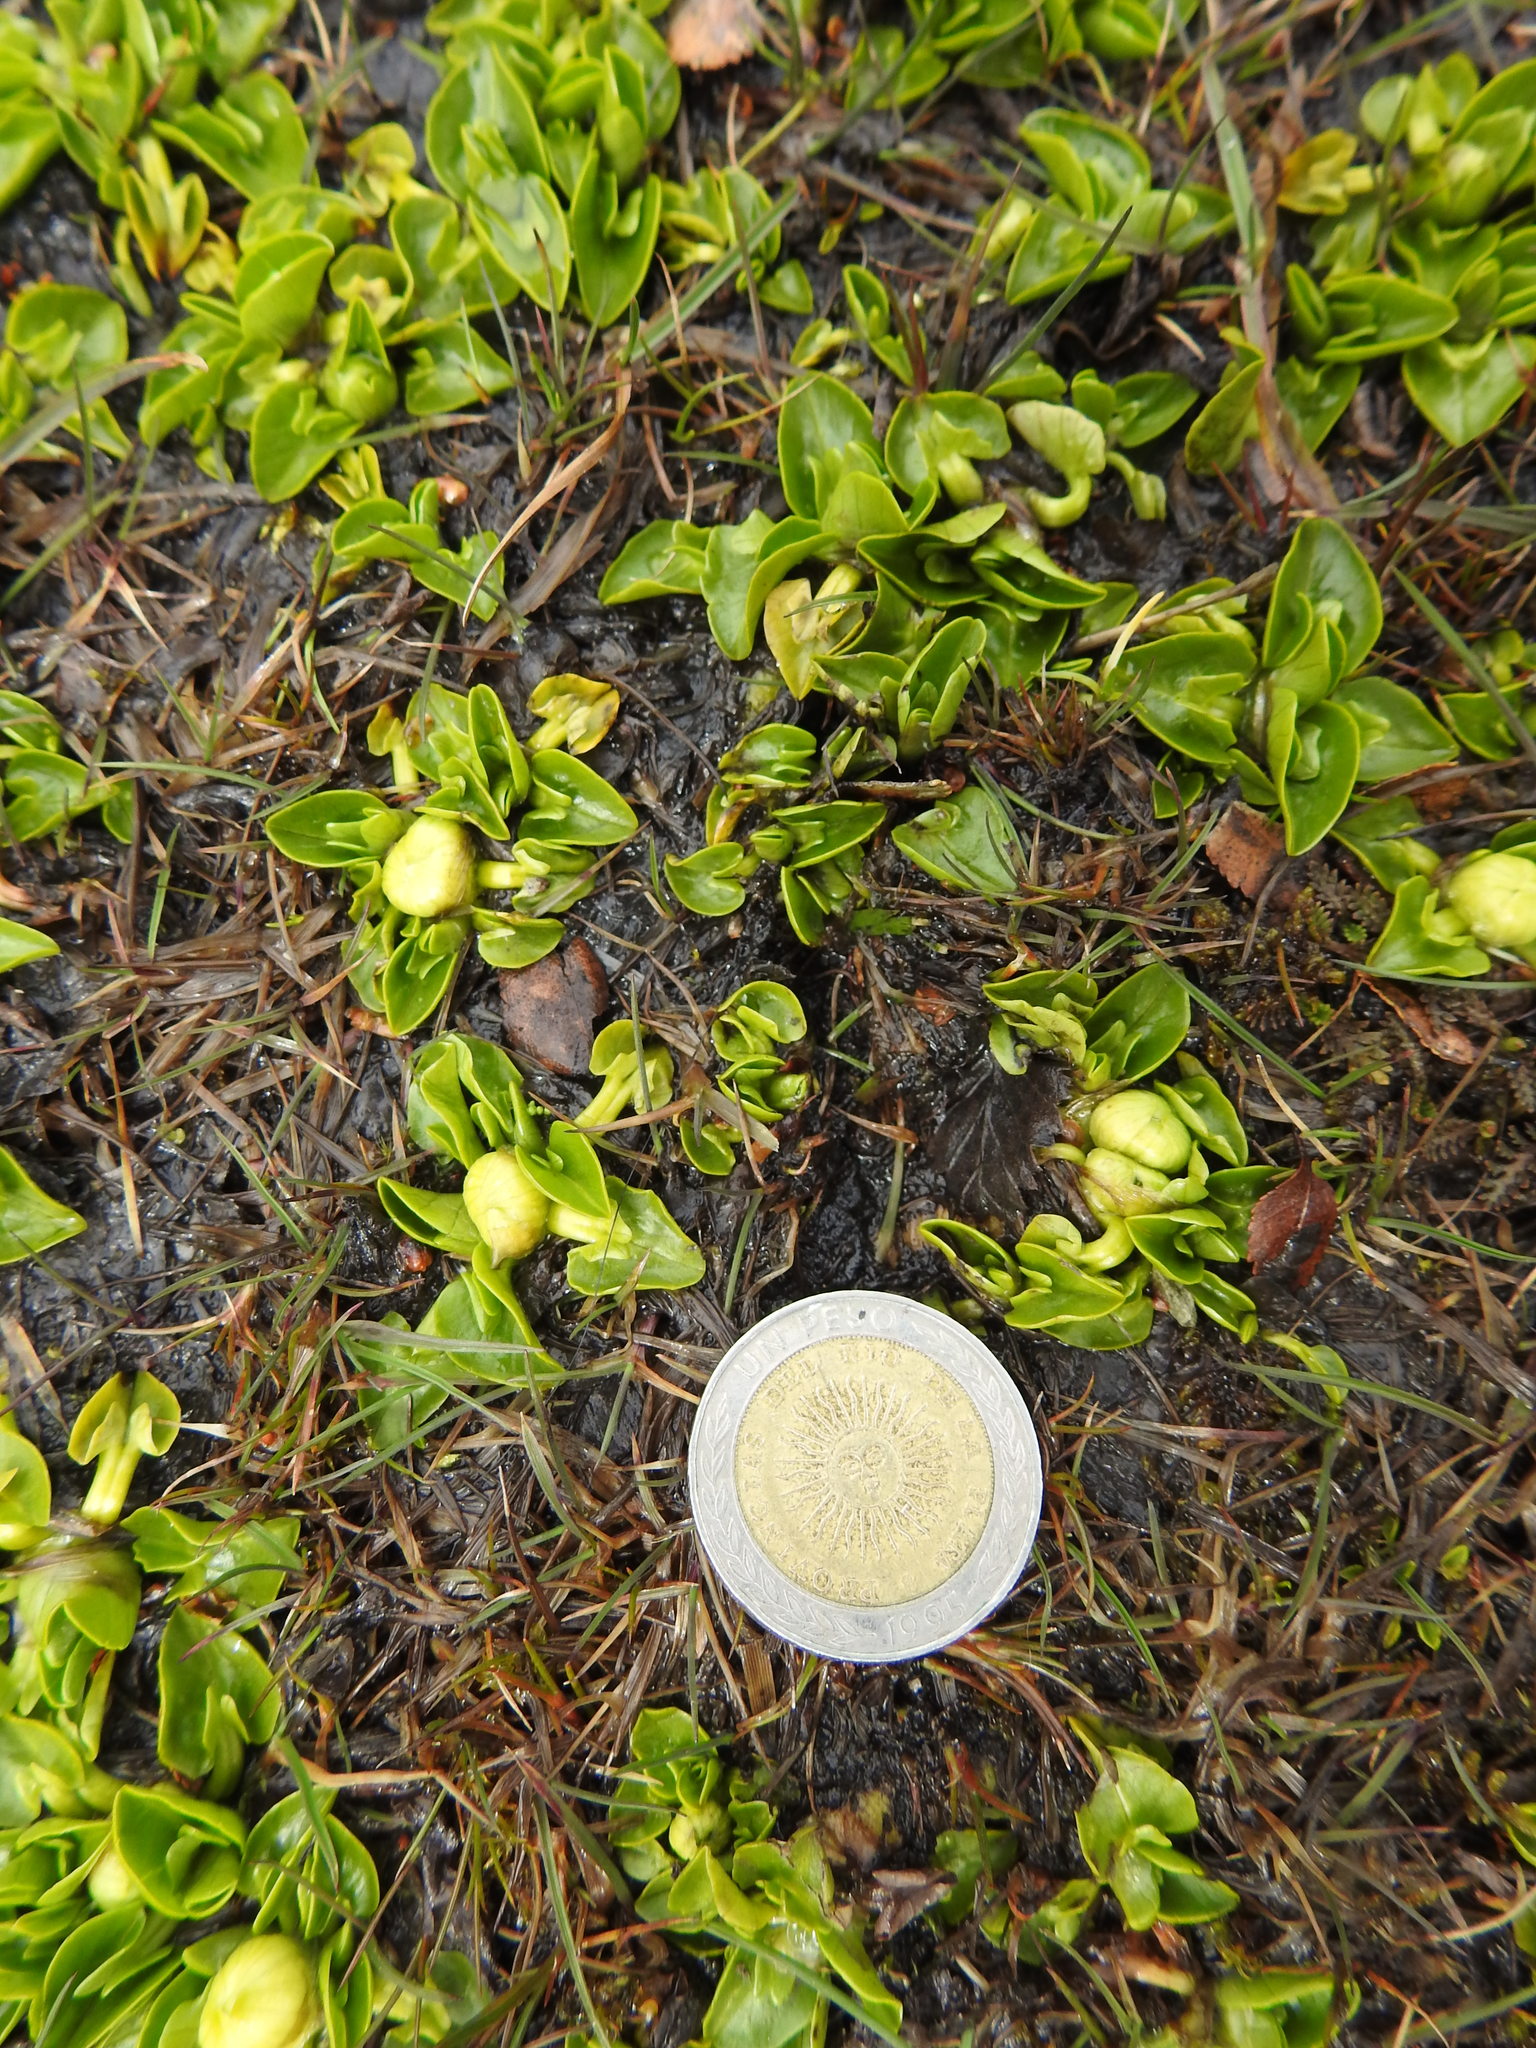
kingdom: Plantae
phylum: Tracheophyta
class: Magnoliopsida
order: Ranunculales
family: Ranunculaceae
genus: Caltha
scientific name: Caltha sagittata
